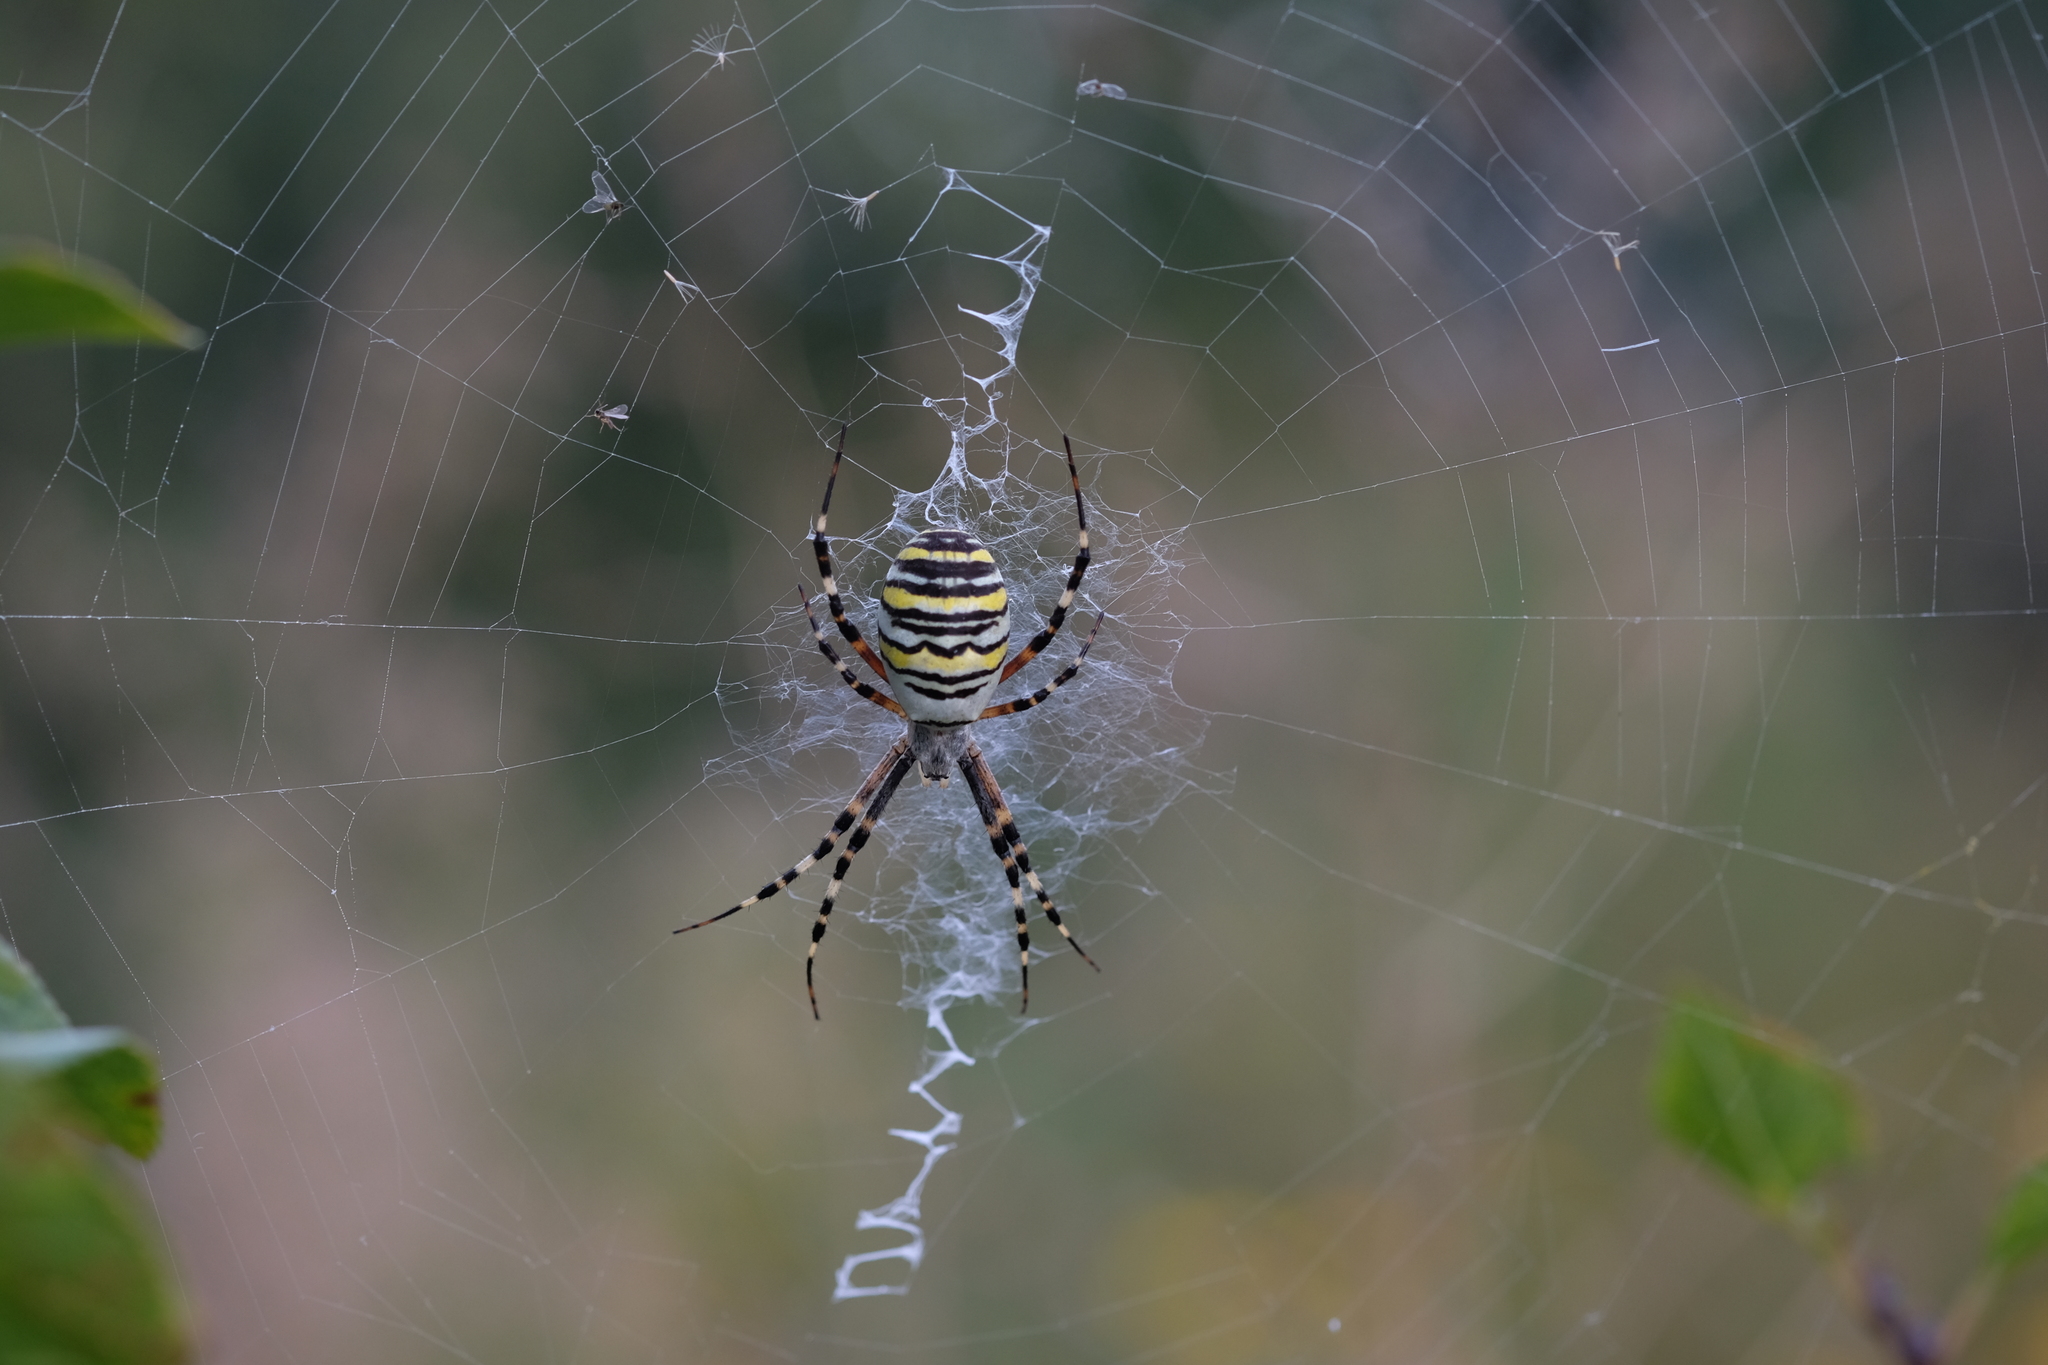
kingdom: Animalia
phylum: Arthropoda
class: Arachnida
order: Araneae
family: Araneidae
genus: Argiope
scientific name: Argiope bruennichi
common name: Wasp spider
